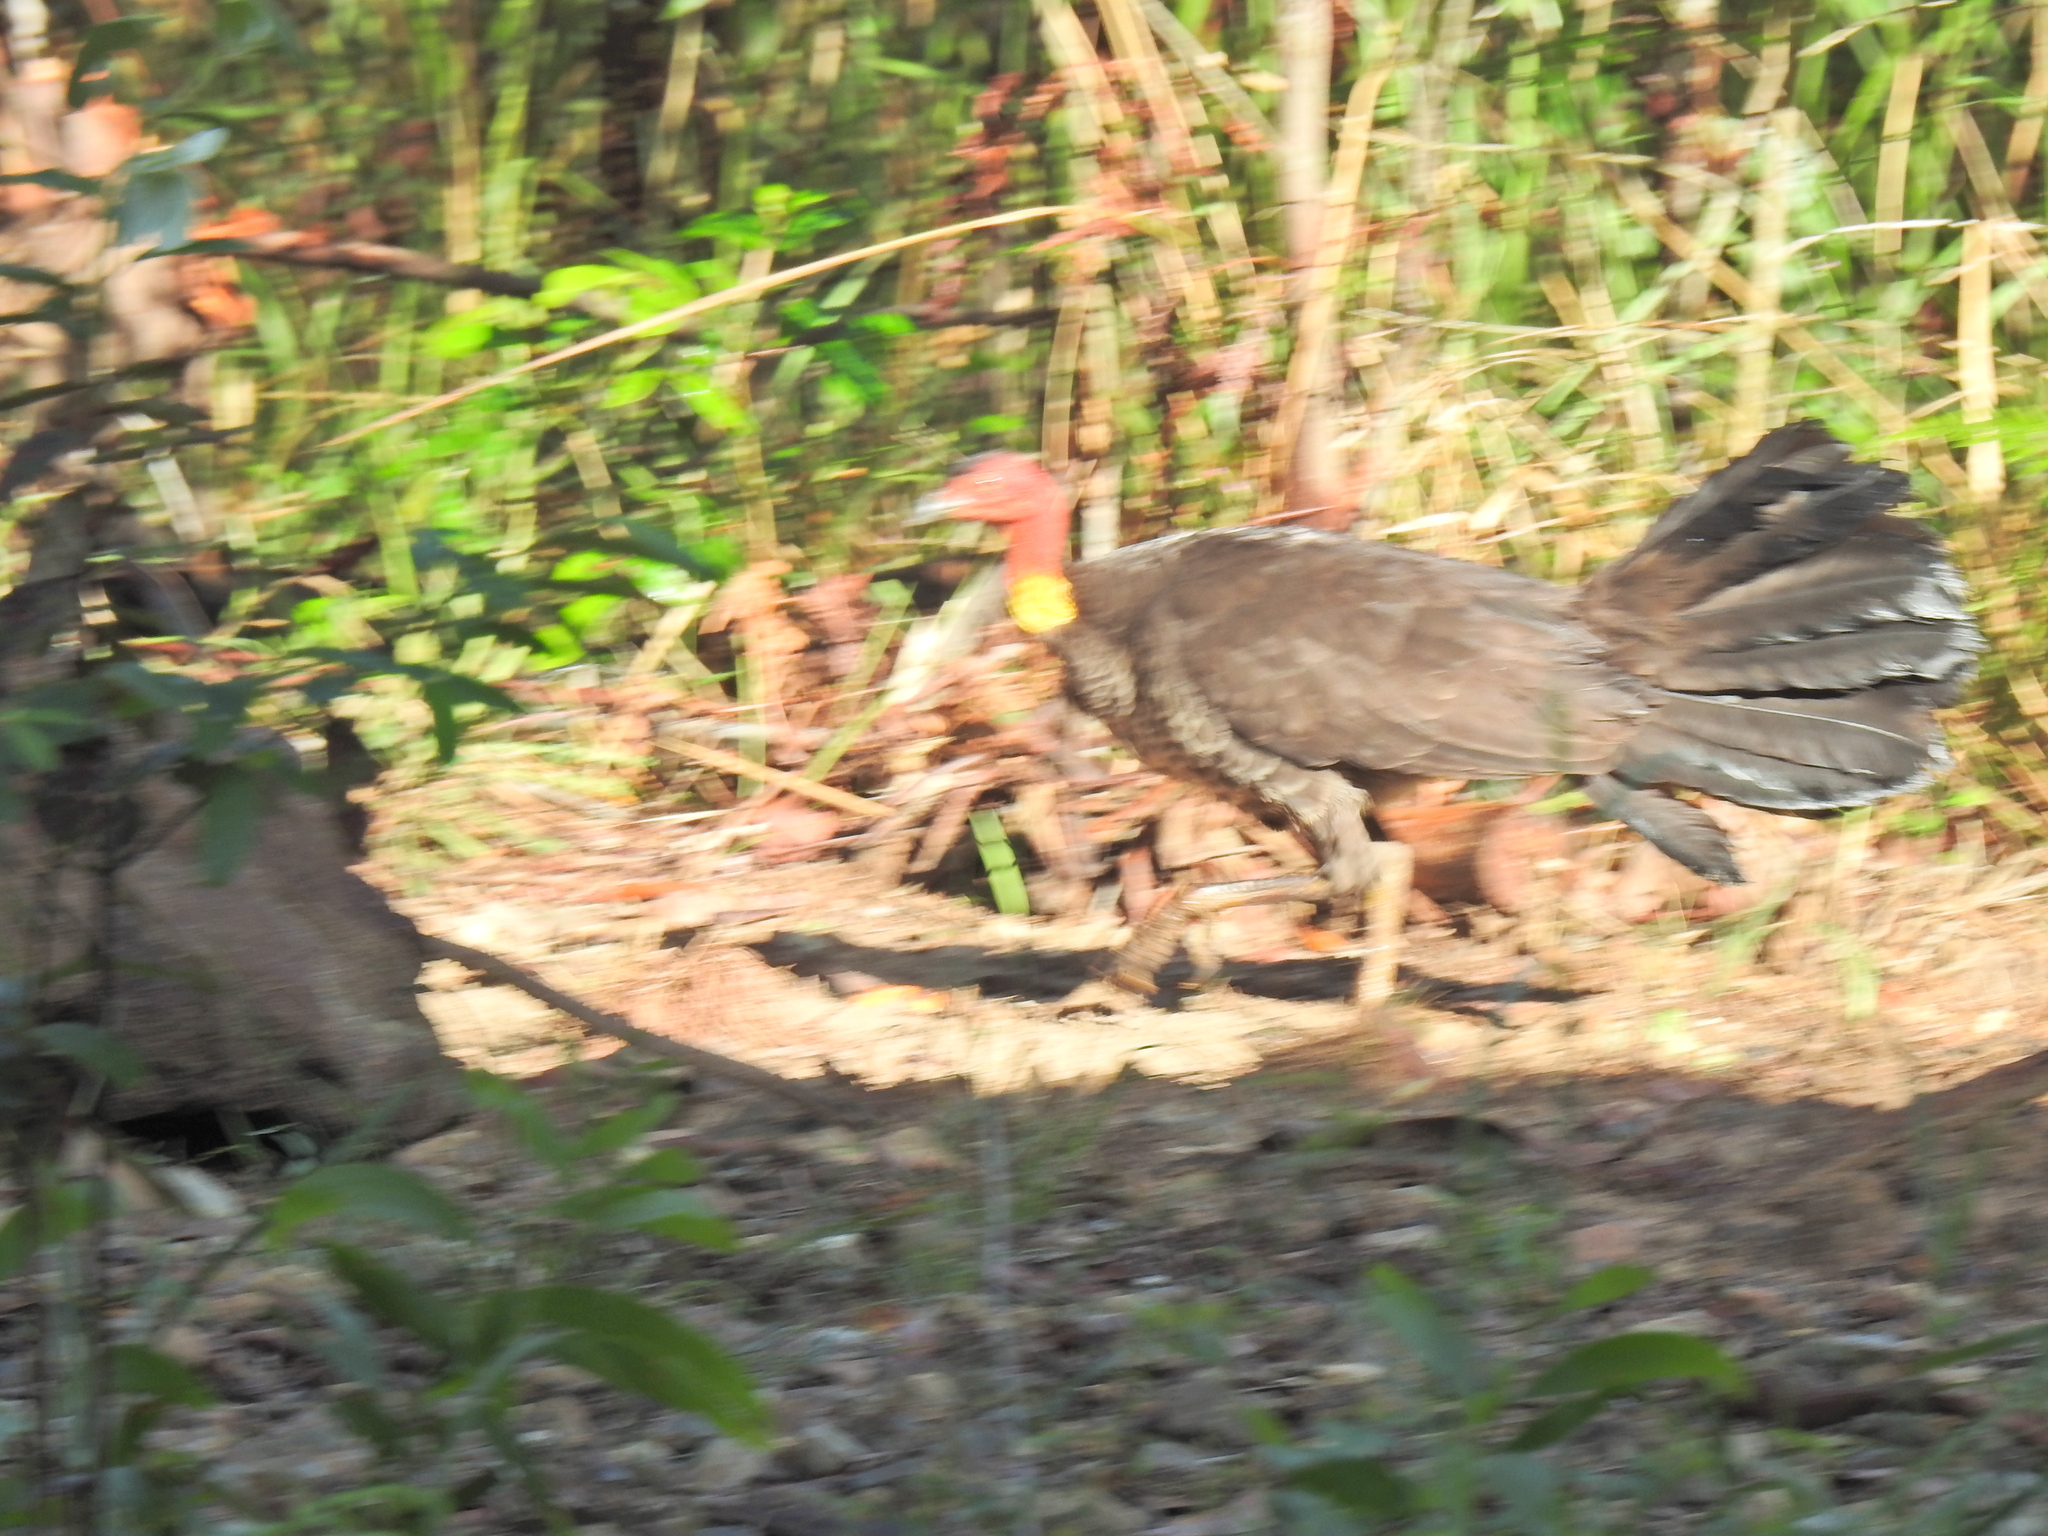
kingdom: Animalia
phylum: Chordata
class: Aves
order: Galliformes
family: Megapodiidae
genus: Alectura
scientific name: Alectura lathami
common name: Australian brushturkey
